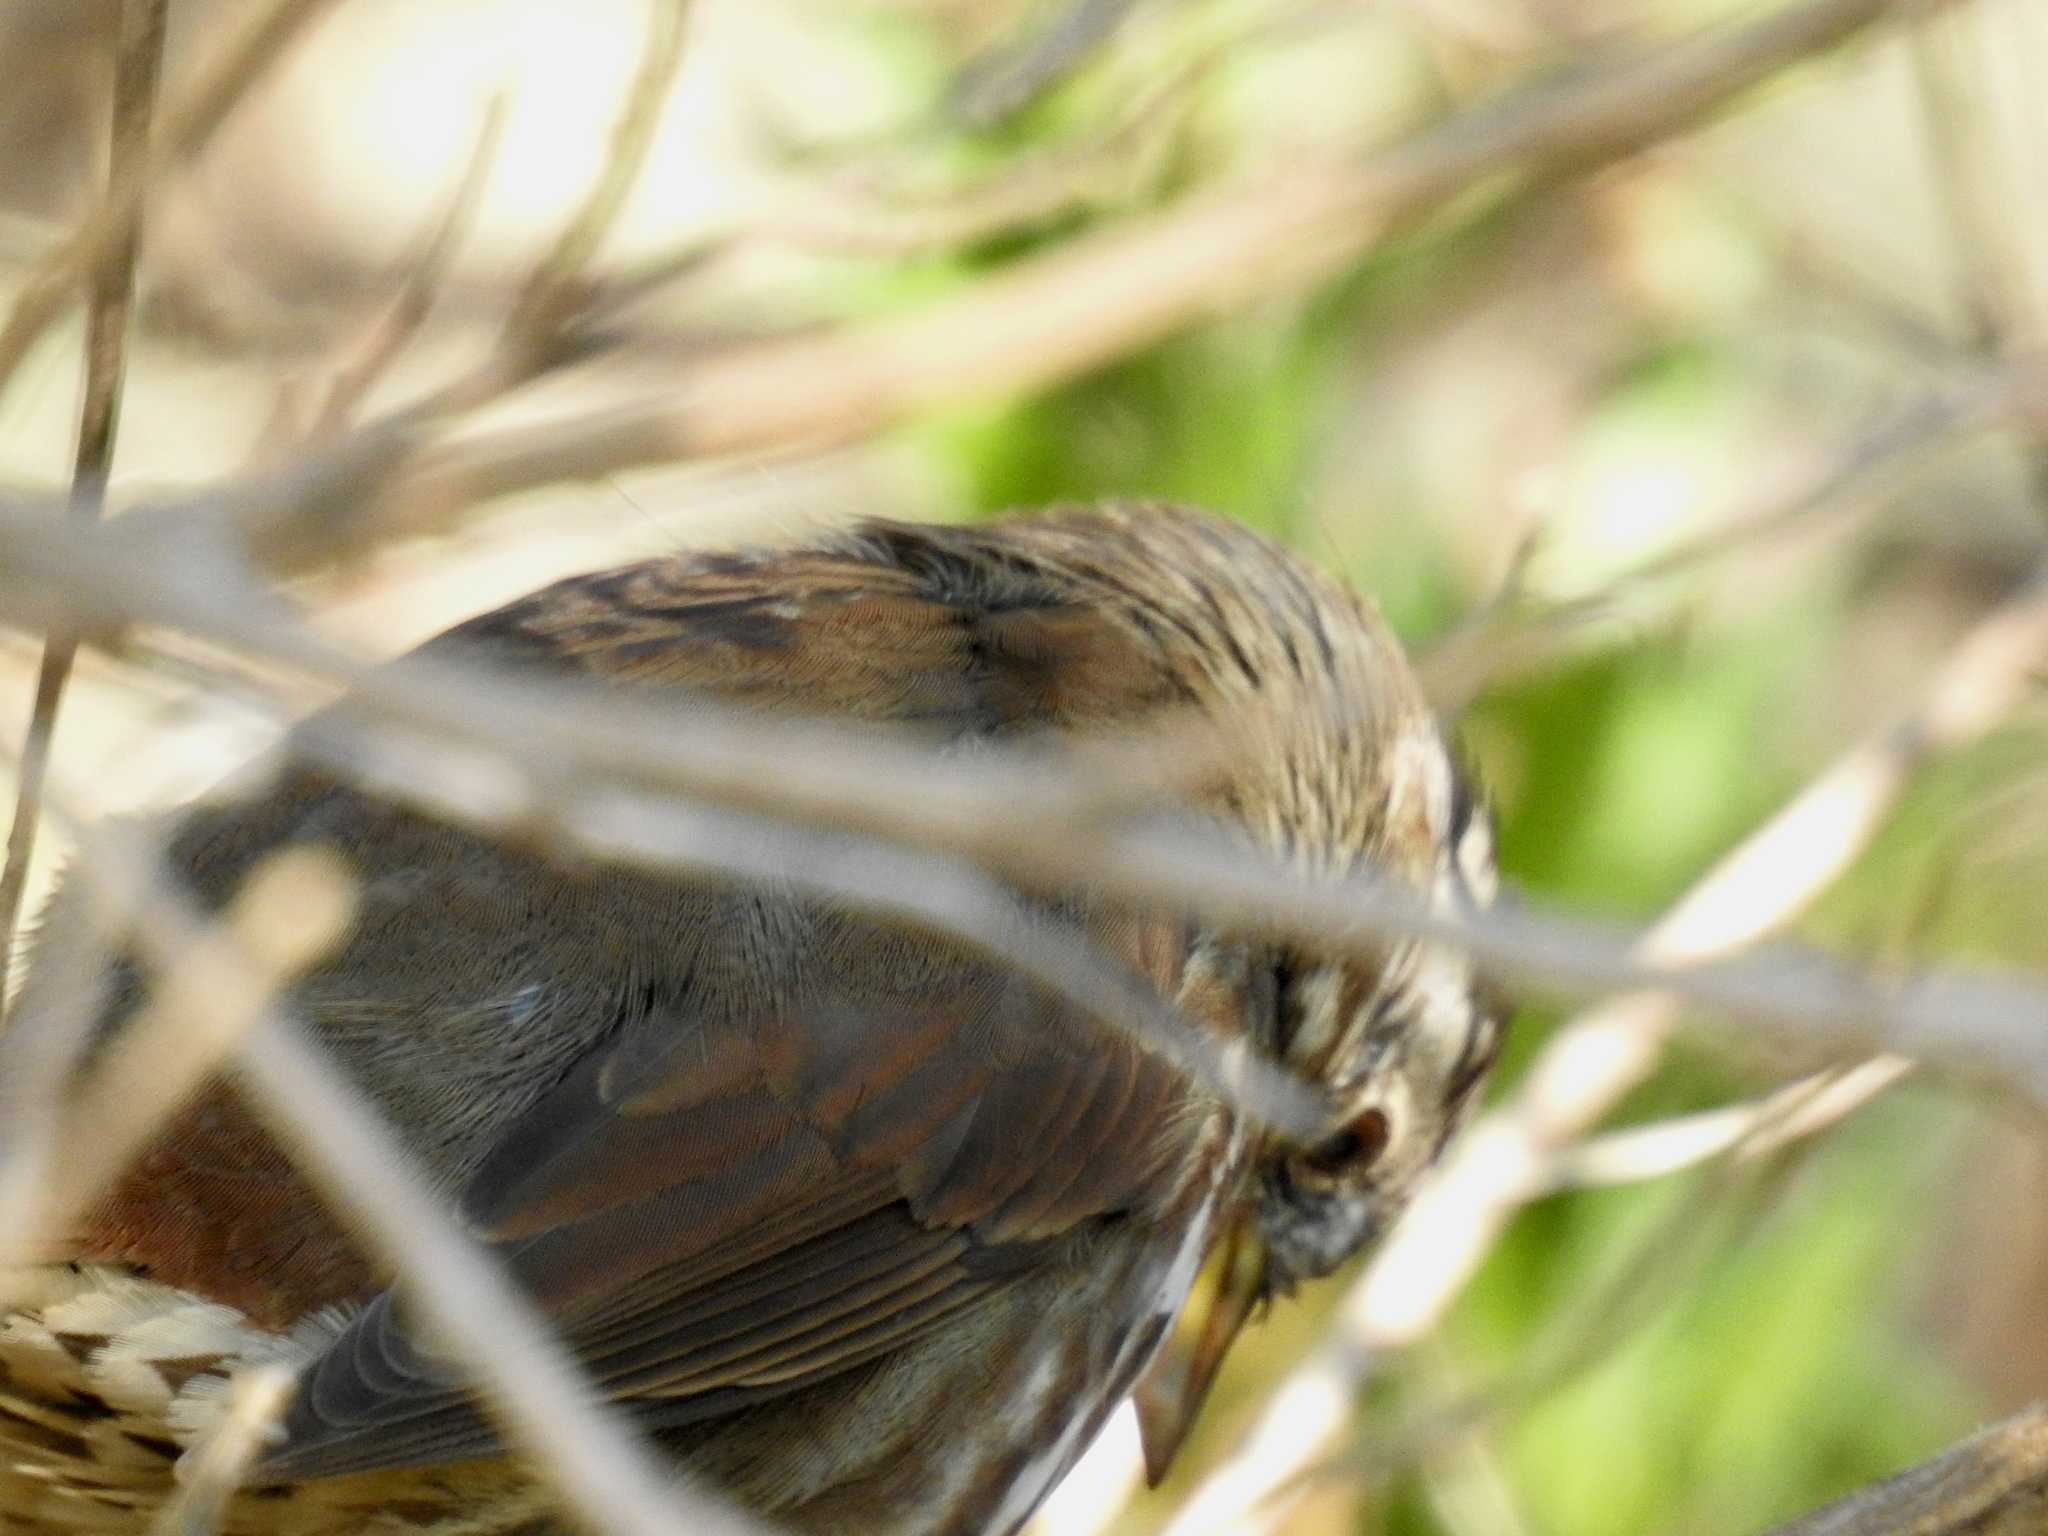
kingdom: Animalia
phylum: Chordata
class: Aves
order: Passeriformes
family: Passerellidae
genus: Passerella
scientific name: Passerella iliaca
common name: Fox sparrow
